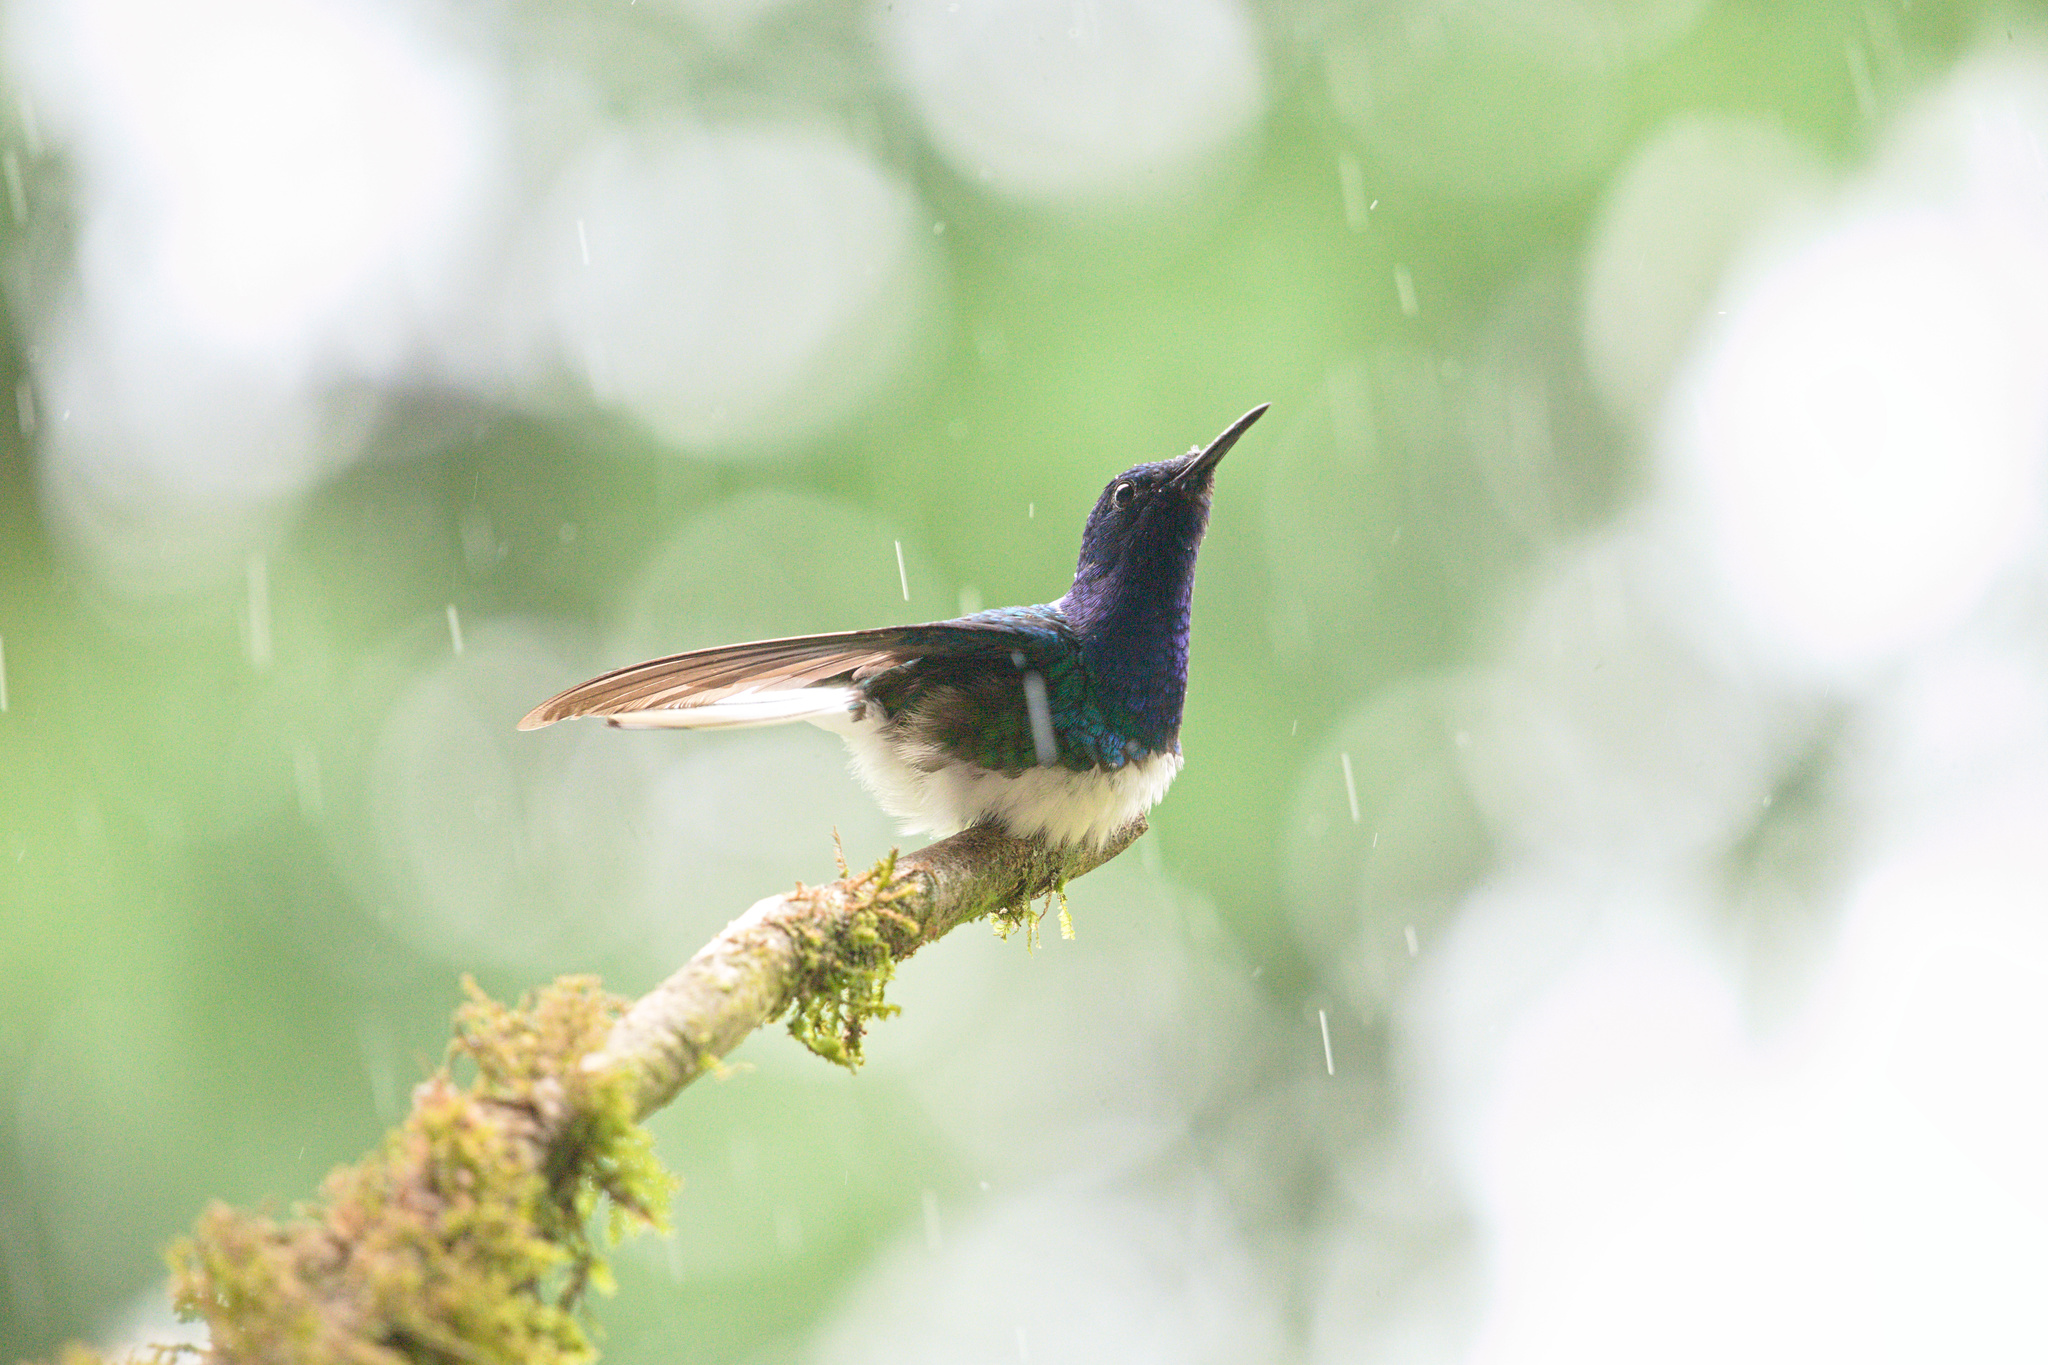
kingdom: Animalia
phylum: Chordata
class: Aves
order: Apodiformes
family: Trochilidae
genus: Florisuga
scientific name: Florisuga mellivora
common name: White-necked jacobin
